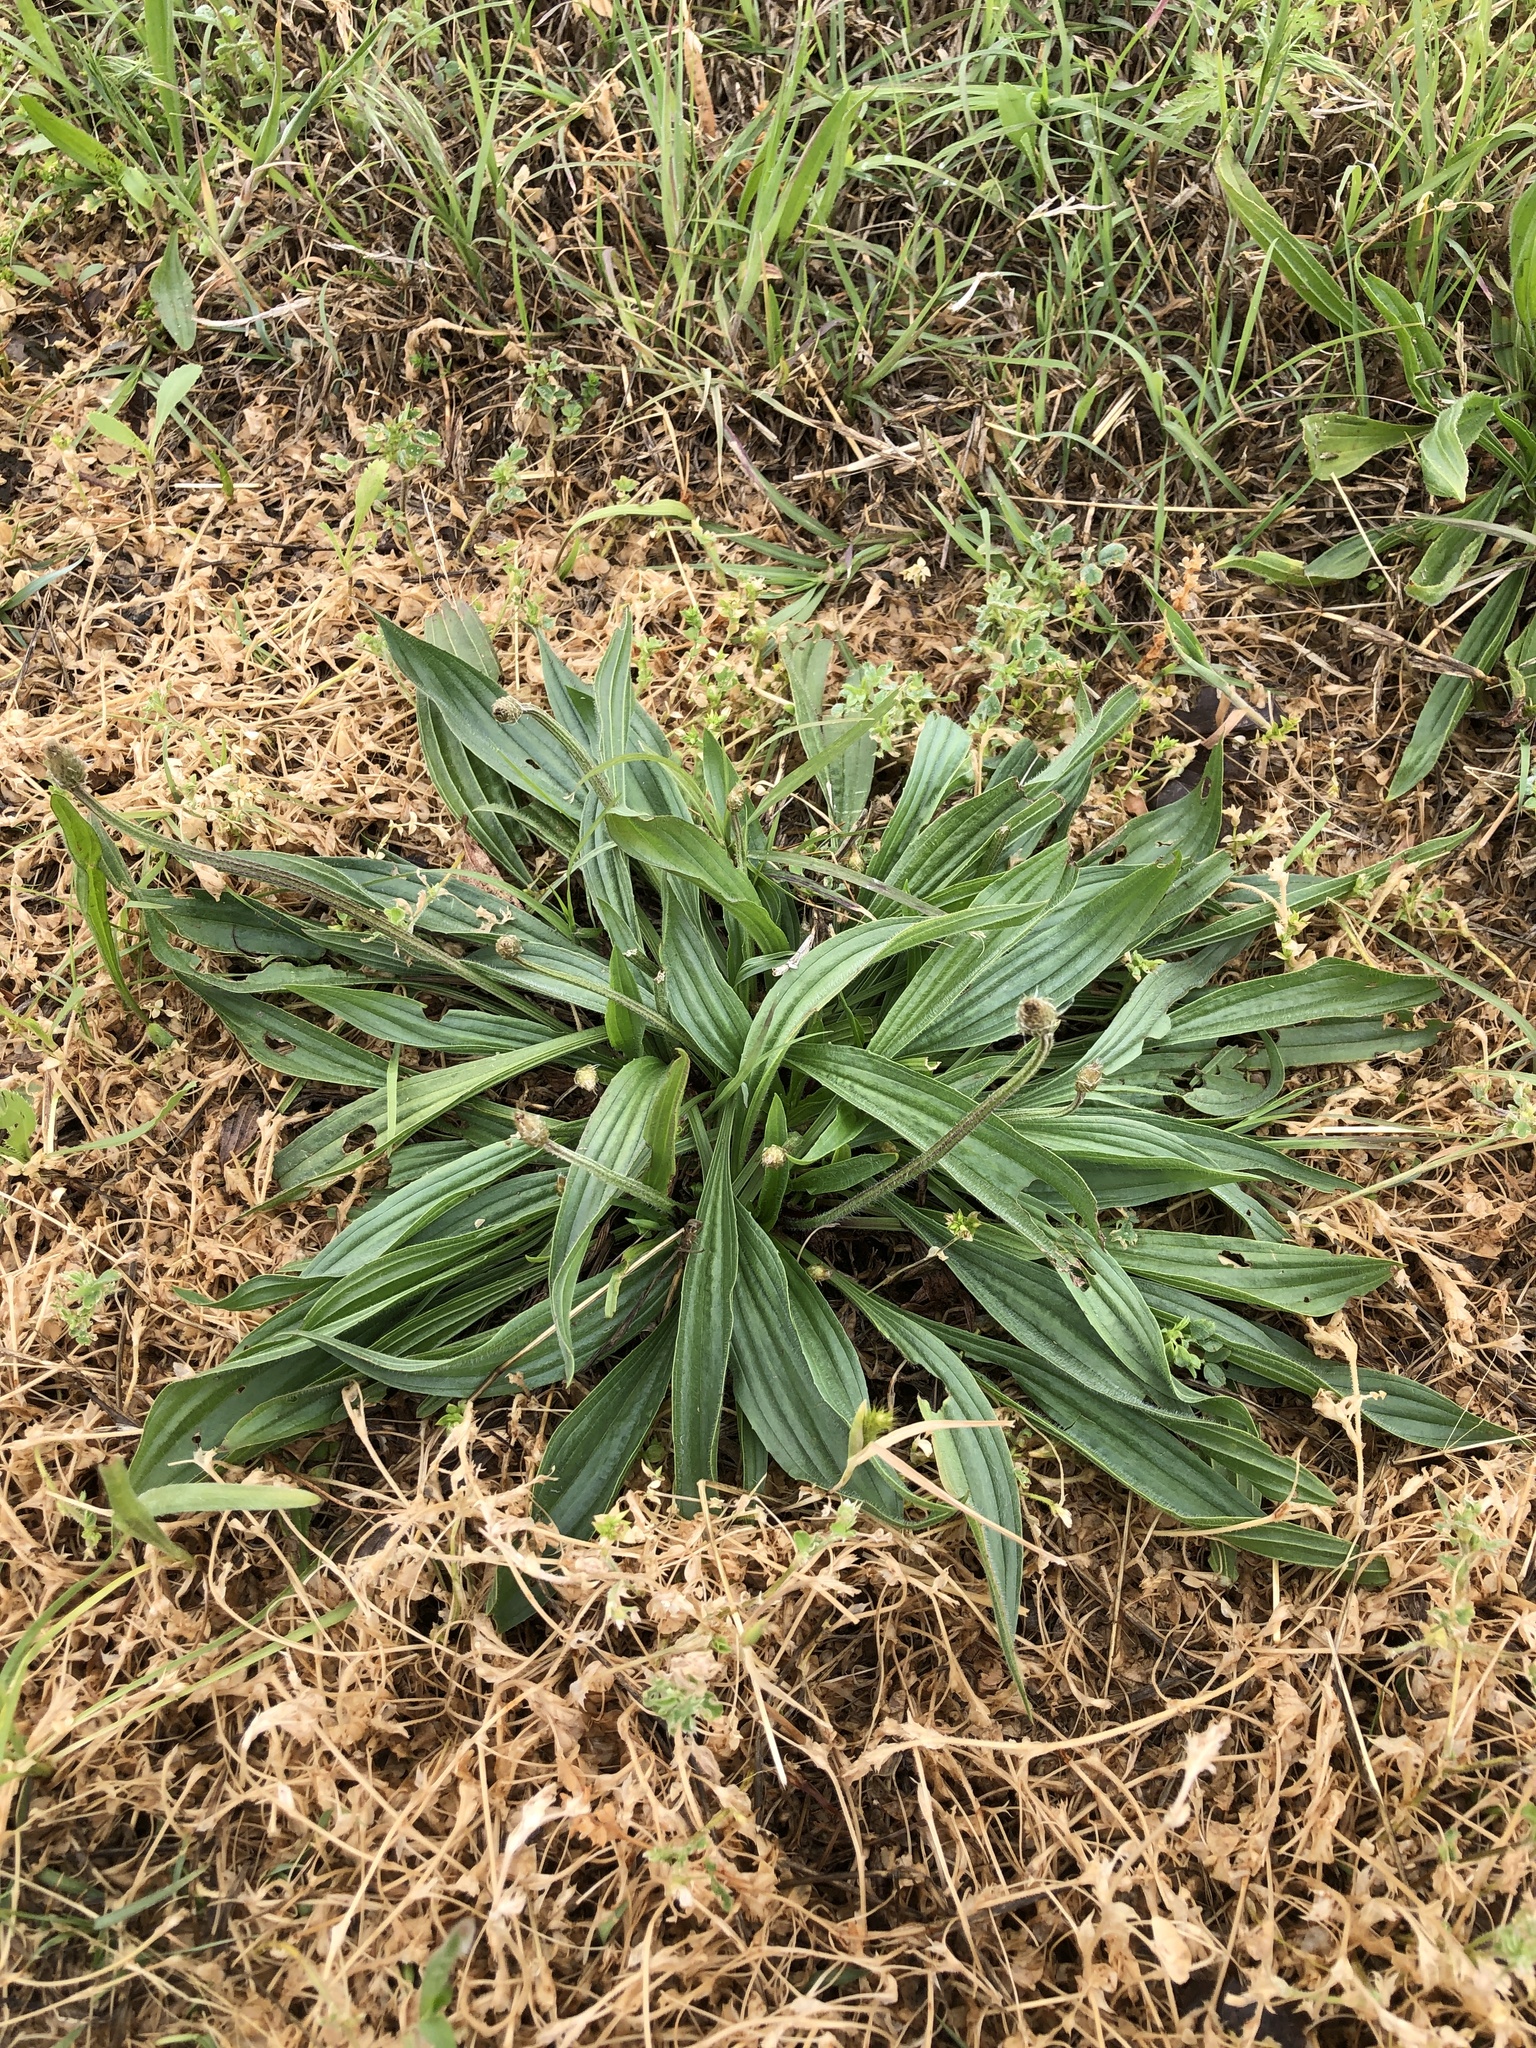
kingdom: Plantae
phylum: Tracheophyta
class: Magnoliopsida
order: Lamiales
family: Plantaginaceae
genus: Plantago
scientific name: Plantago lanceolata
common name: Ribwort plantain
